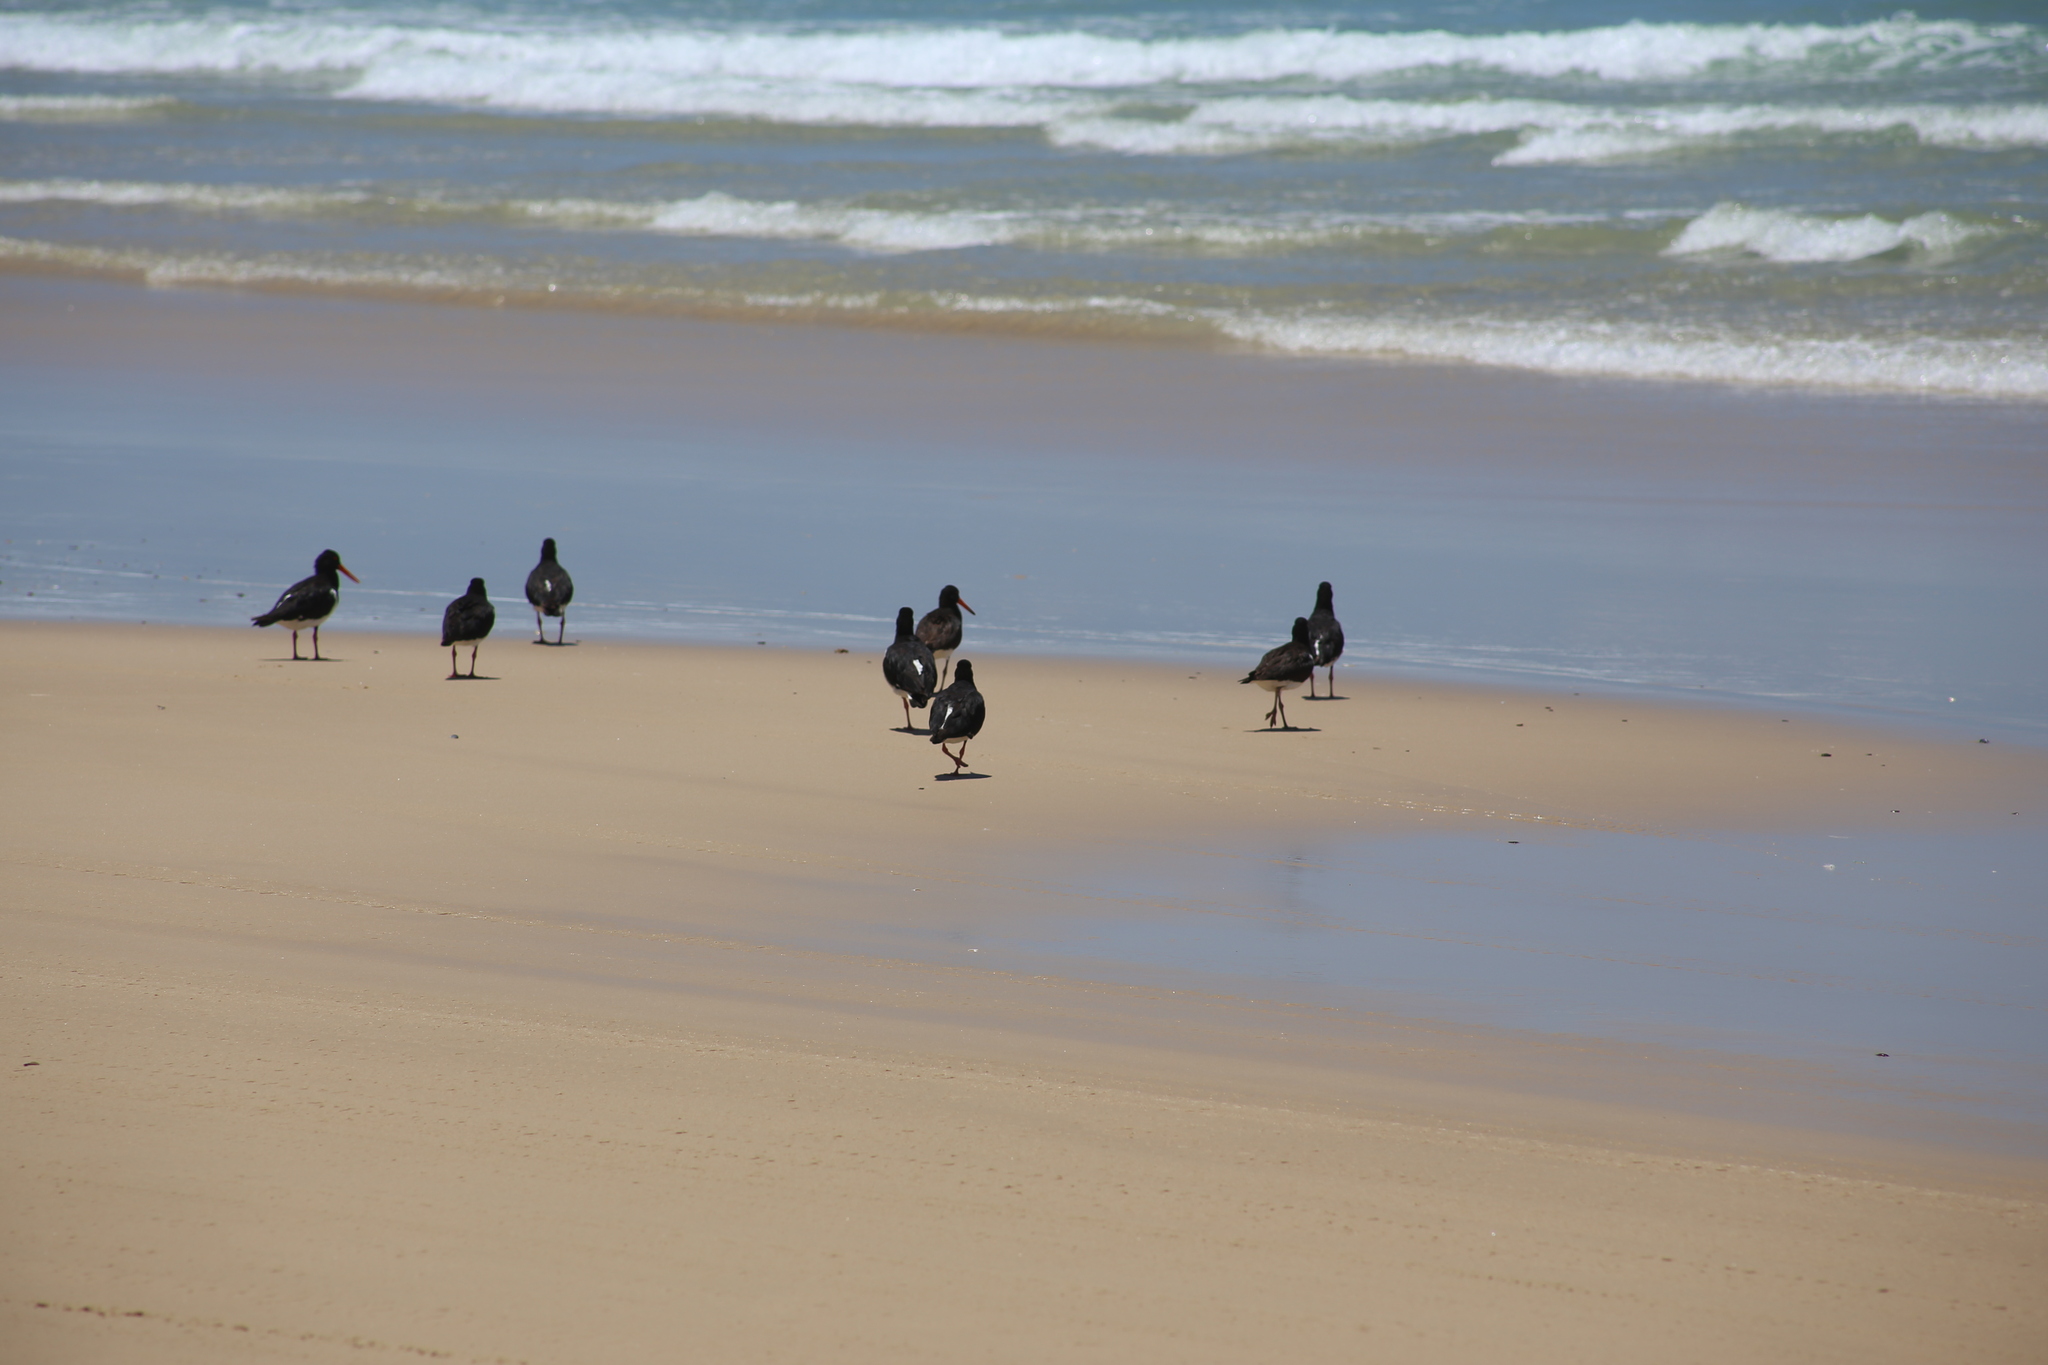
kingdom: Animalia
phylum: Chordata
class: Aves
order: Charadriiformes
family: Haematopodidae
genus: Haematopus
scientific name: Haematopus longirostris
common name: Pied oystercatcher
